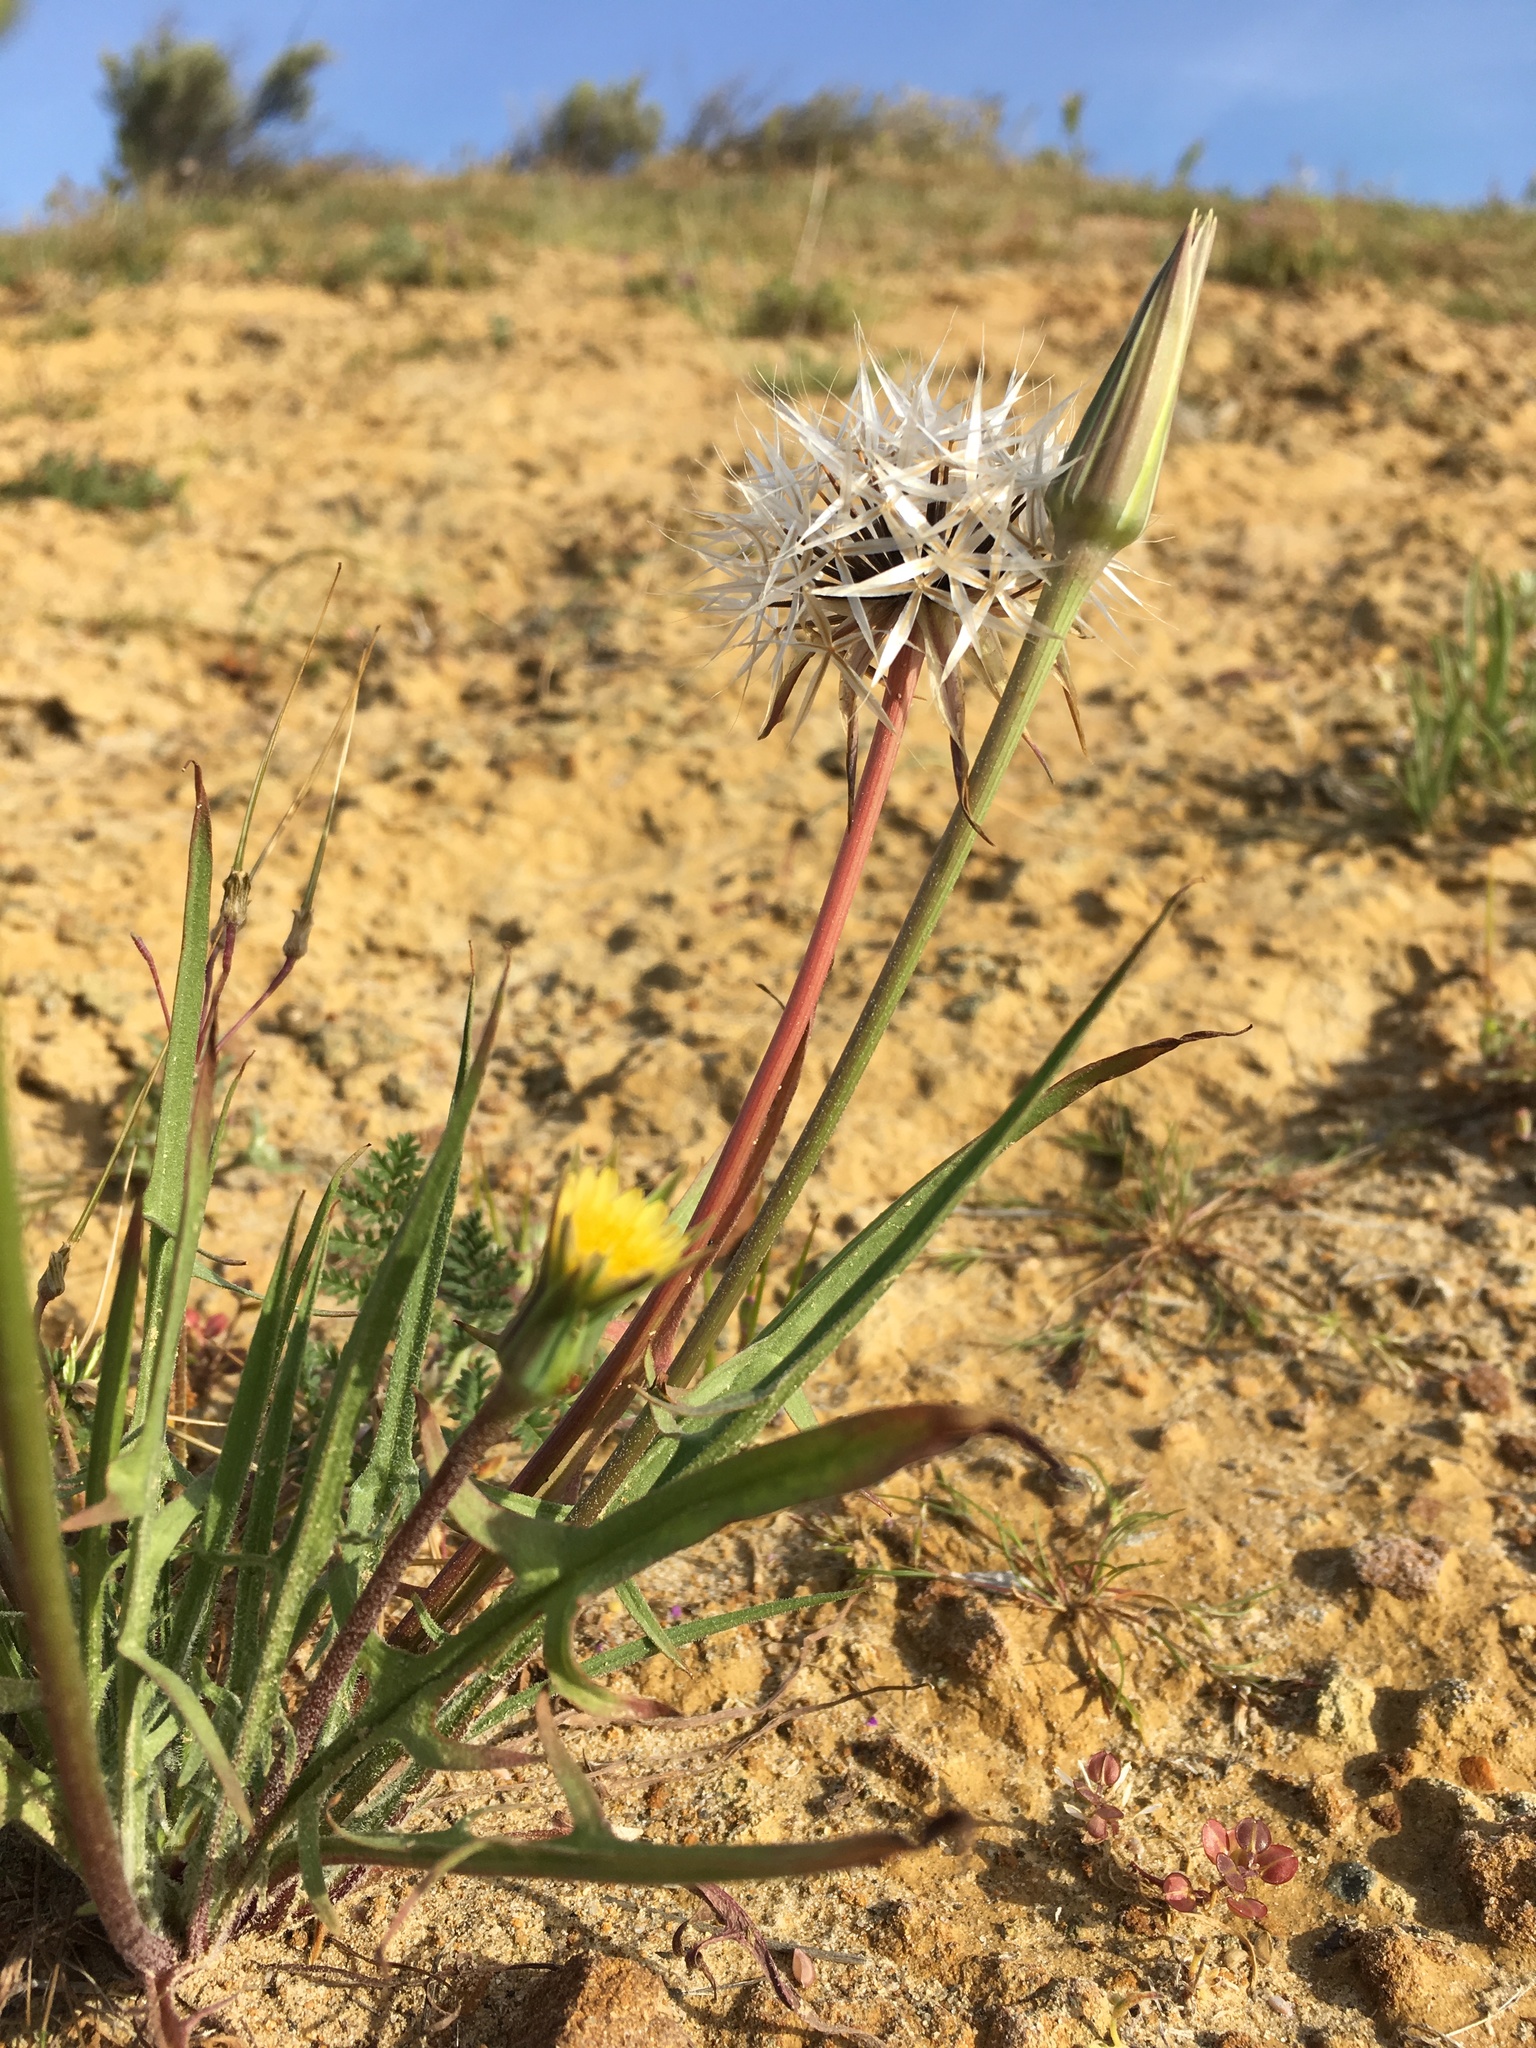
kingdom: Plantae
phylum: Tracheophyta
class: Magnoliopsida
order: Asterales
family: Asteraceae
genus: Microseris
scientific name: Microseris lindleyi
